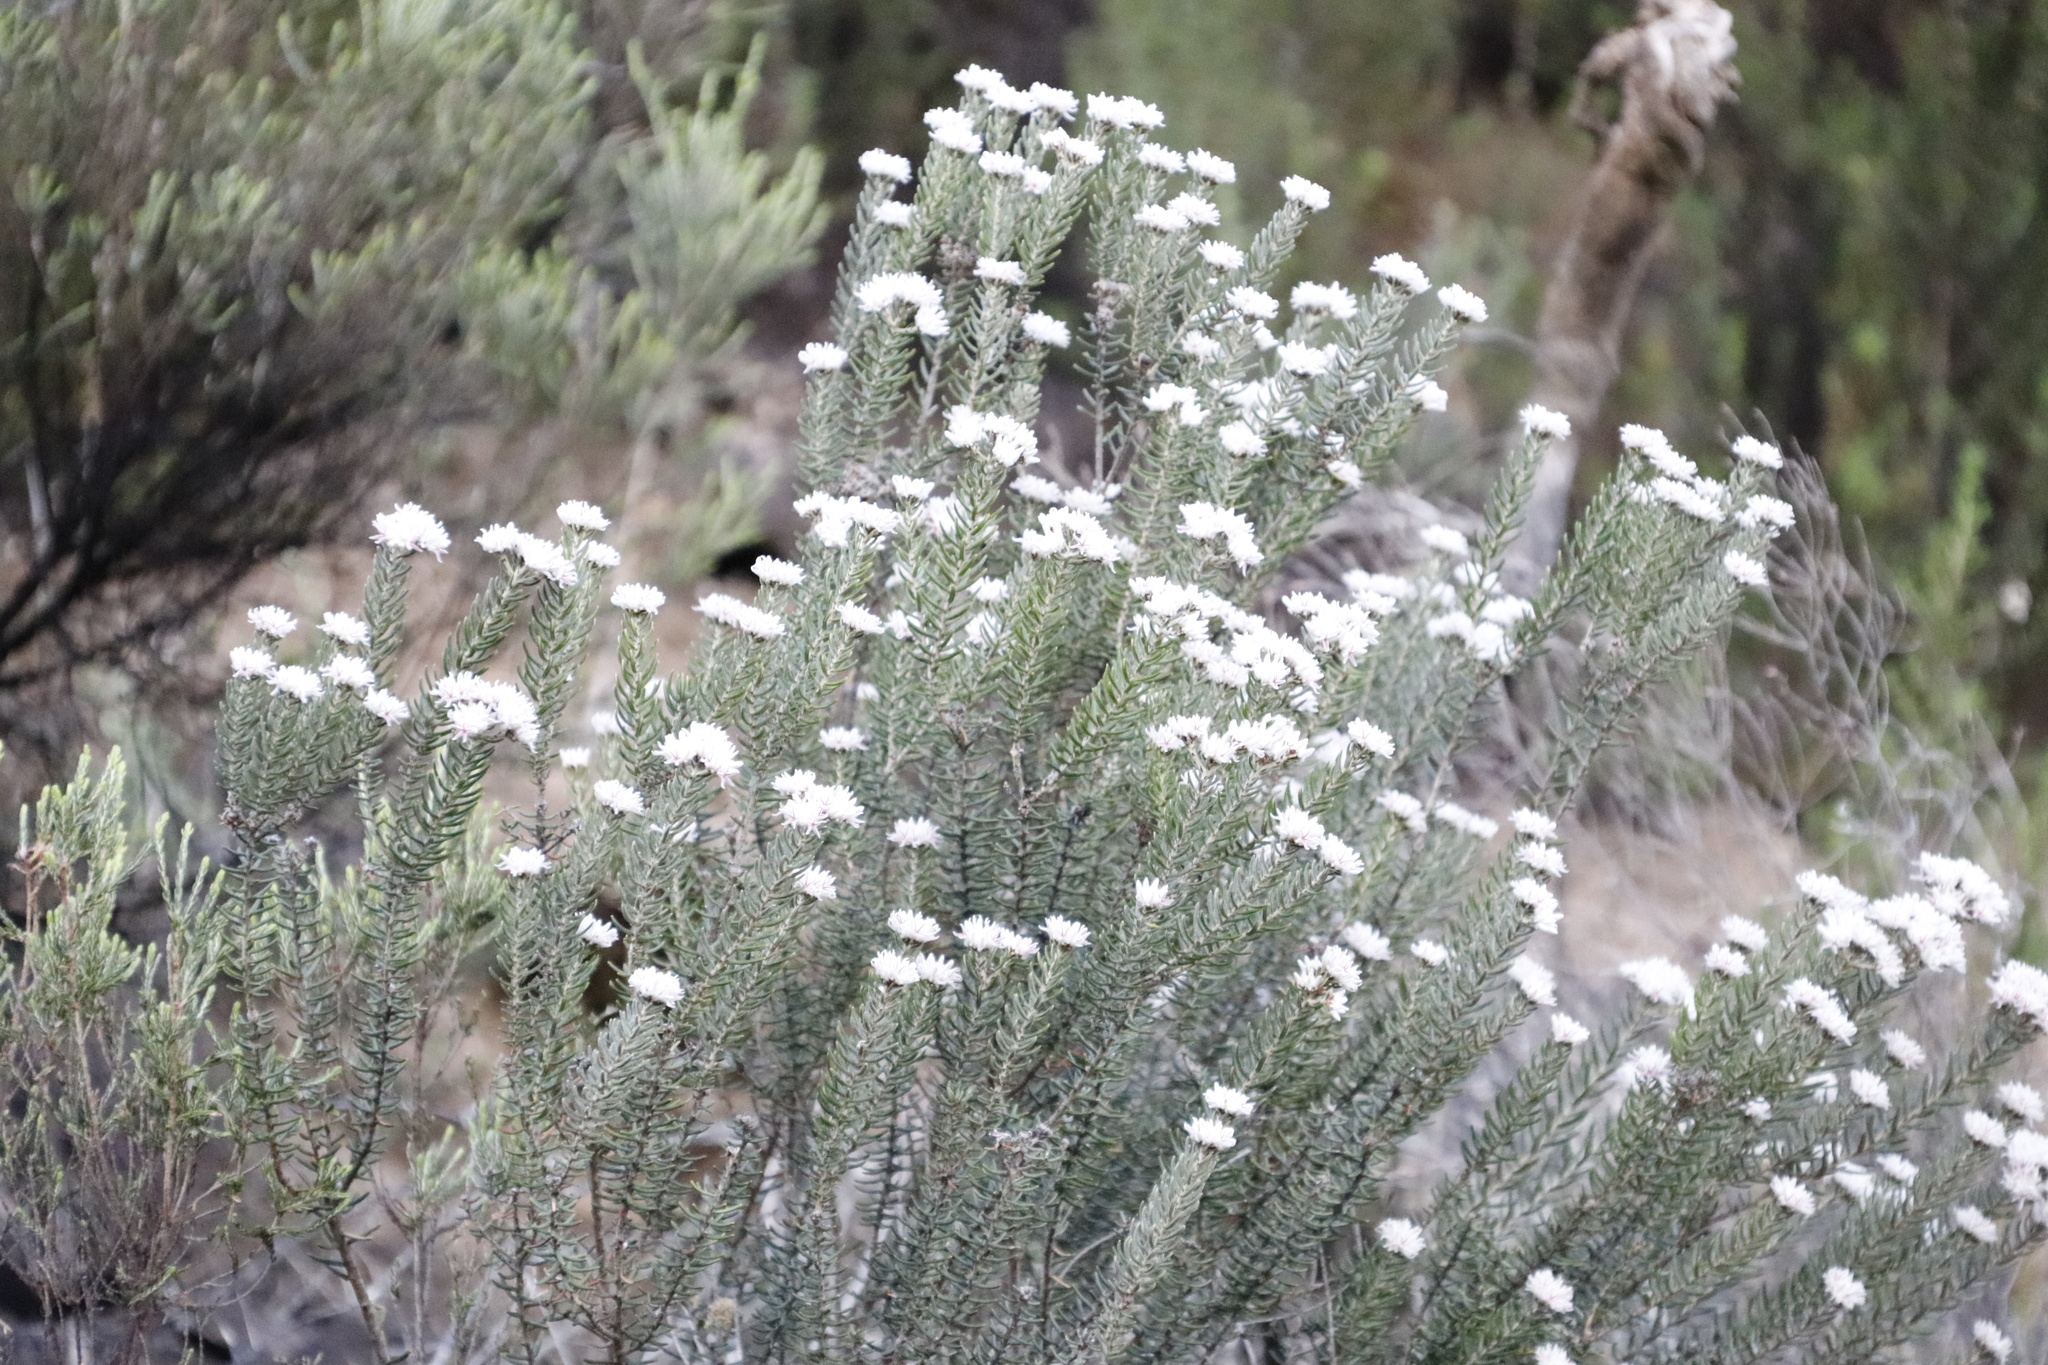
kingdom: Plantae
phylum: Tracheophyta
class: Magnoliopsida
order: Rosales
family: Rhamnaceae
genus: Trichocephalus
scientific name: Trichocephalus stipularis
